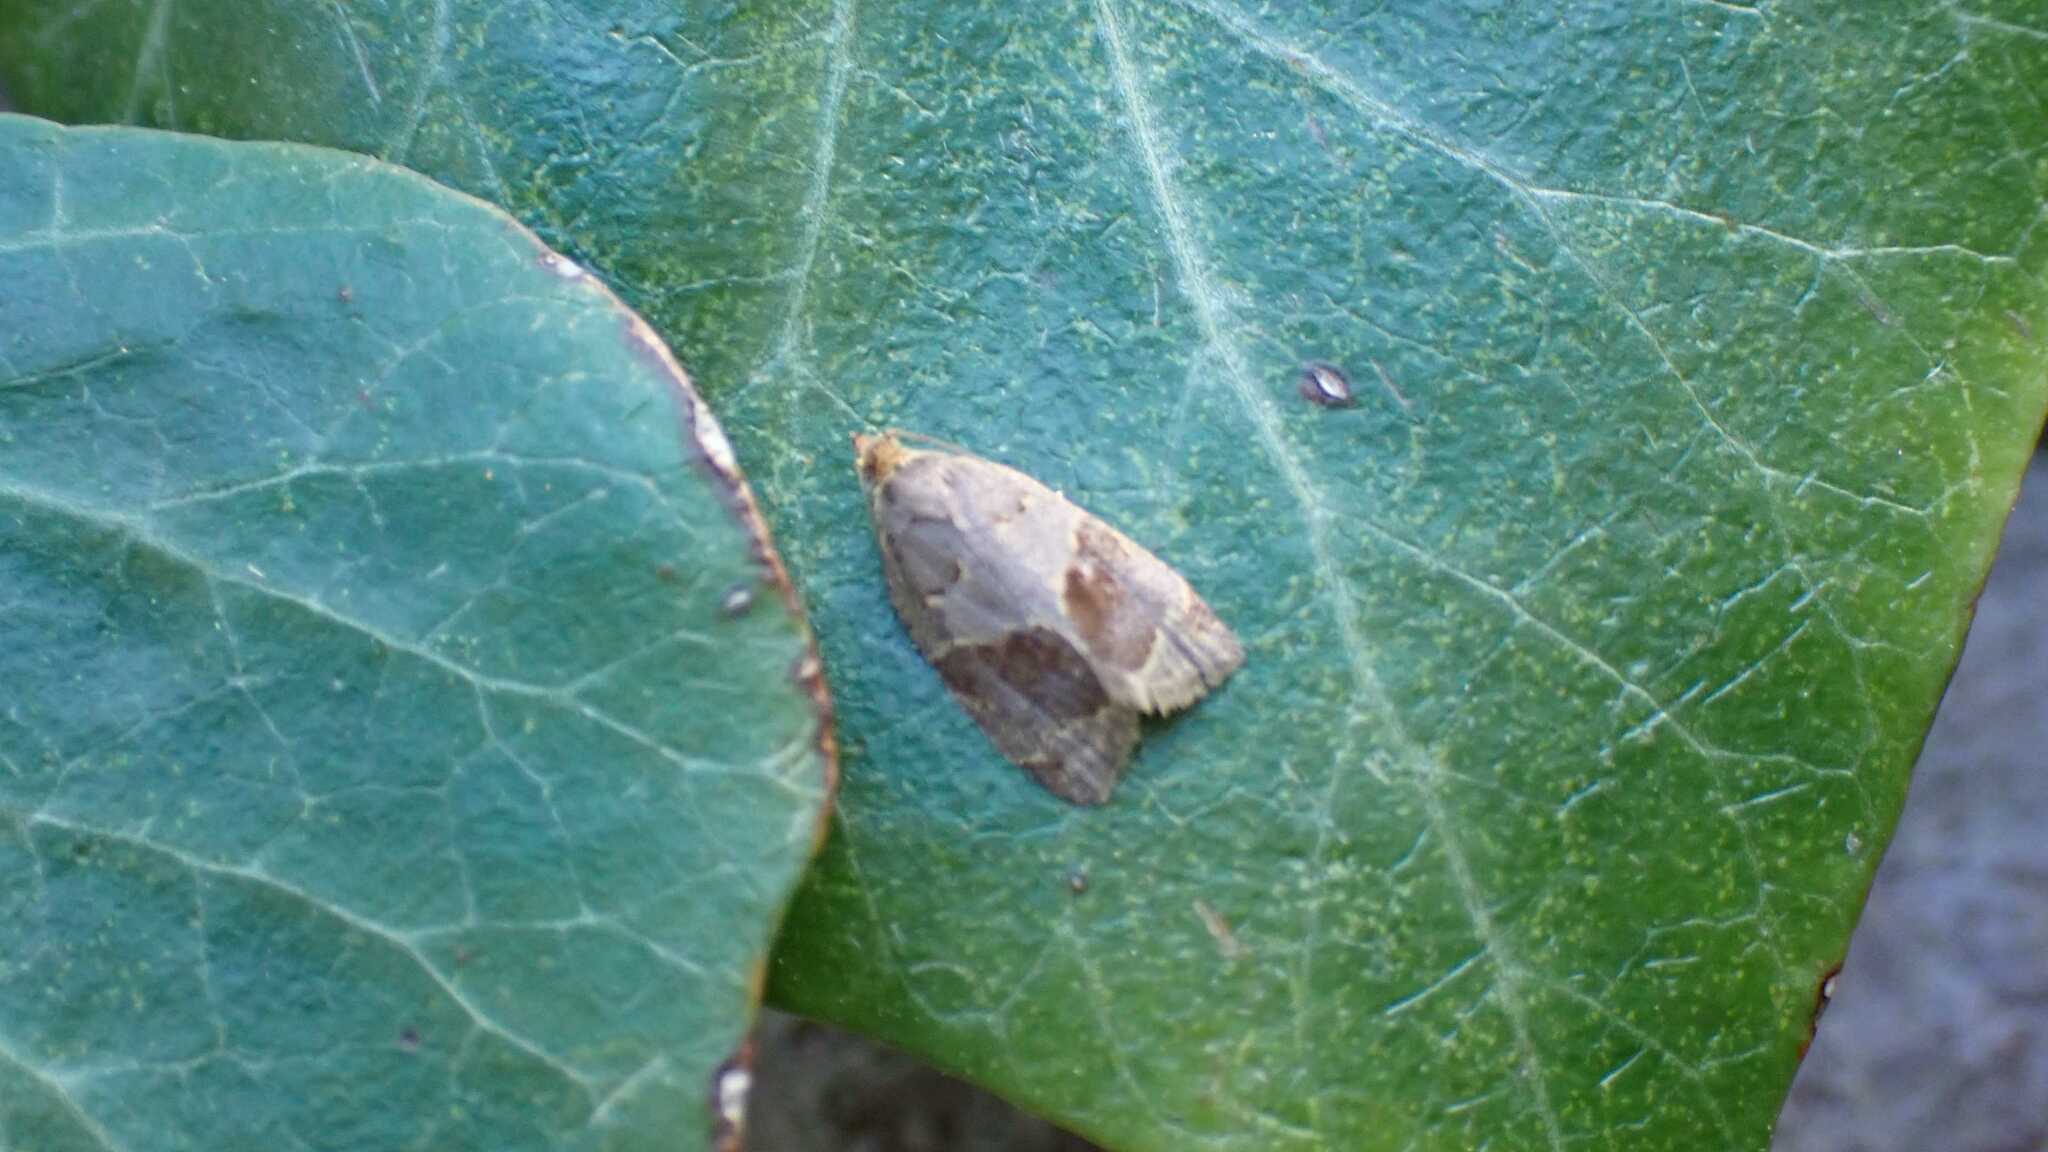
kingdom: Animalia
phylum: Arthropoda
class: Insecta
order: Lepidoptera
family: Tortricidae
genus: Clepsis
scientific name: Clepsis dumicolana
